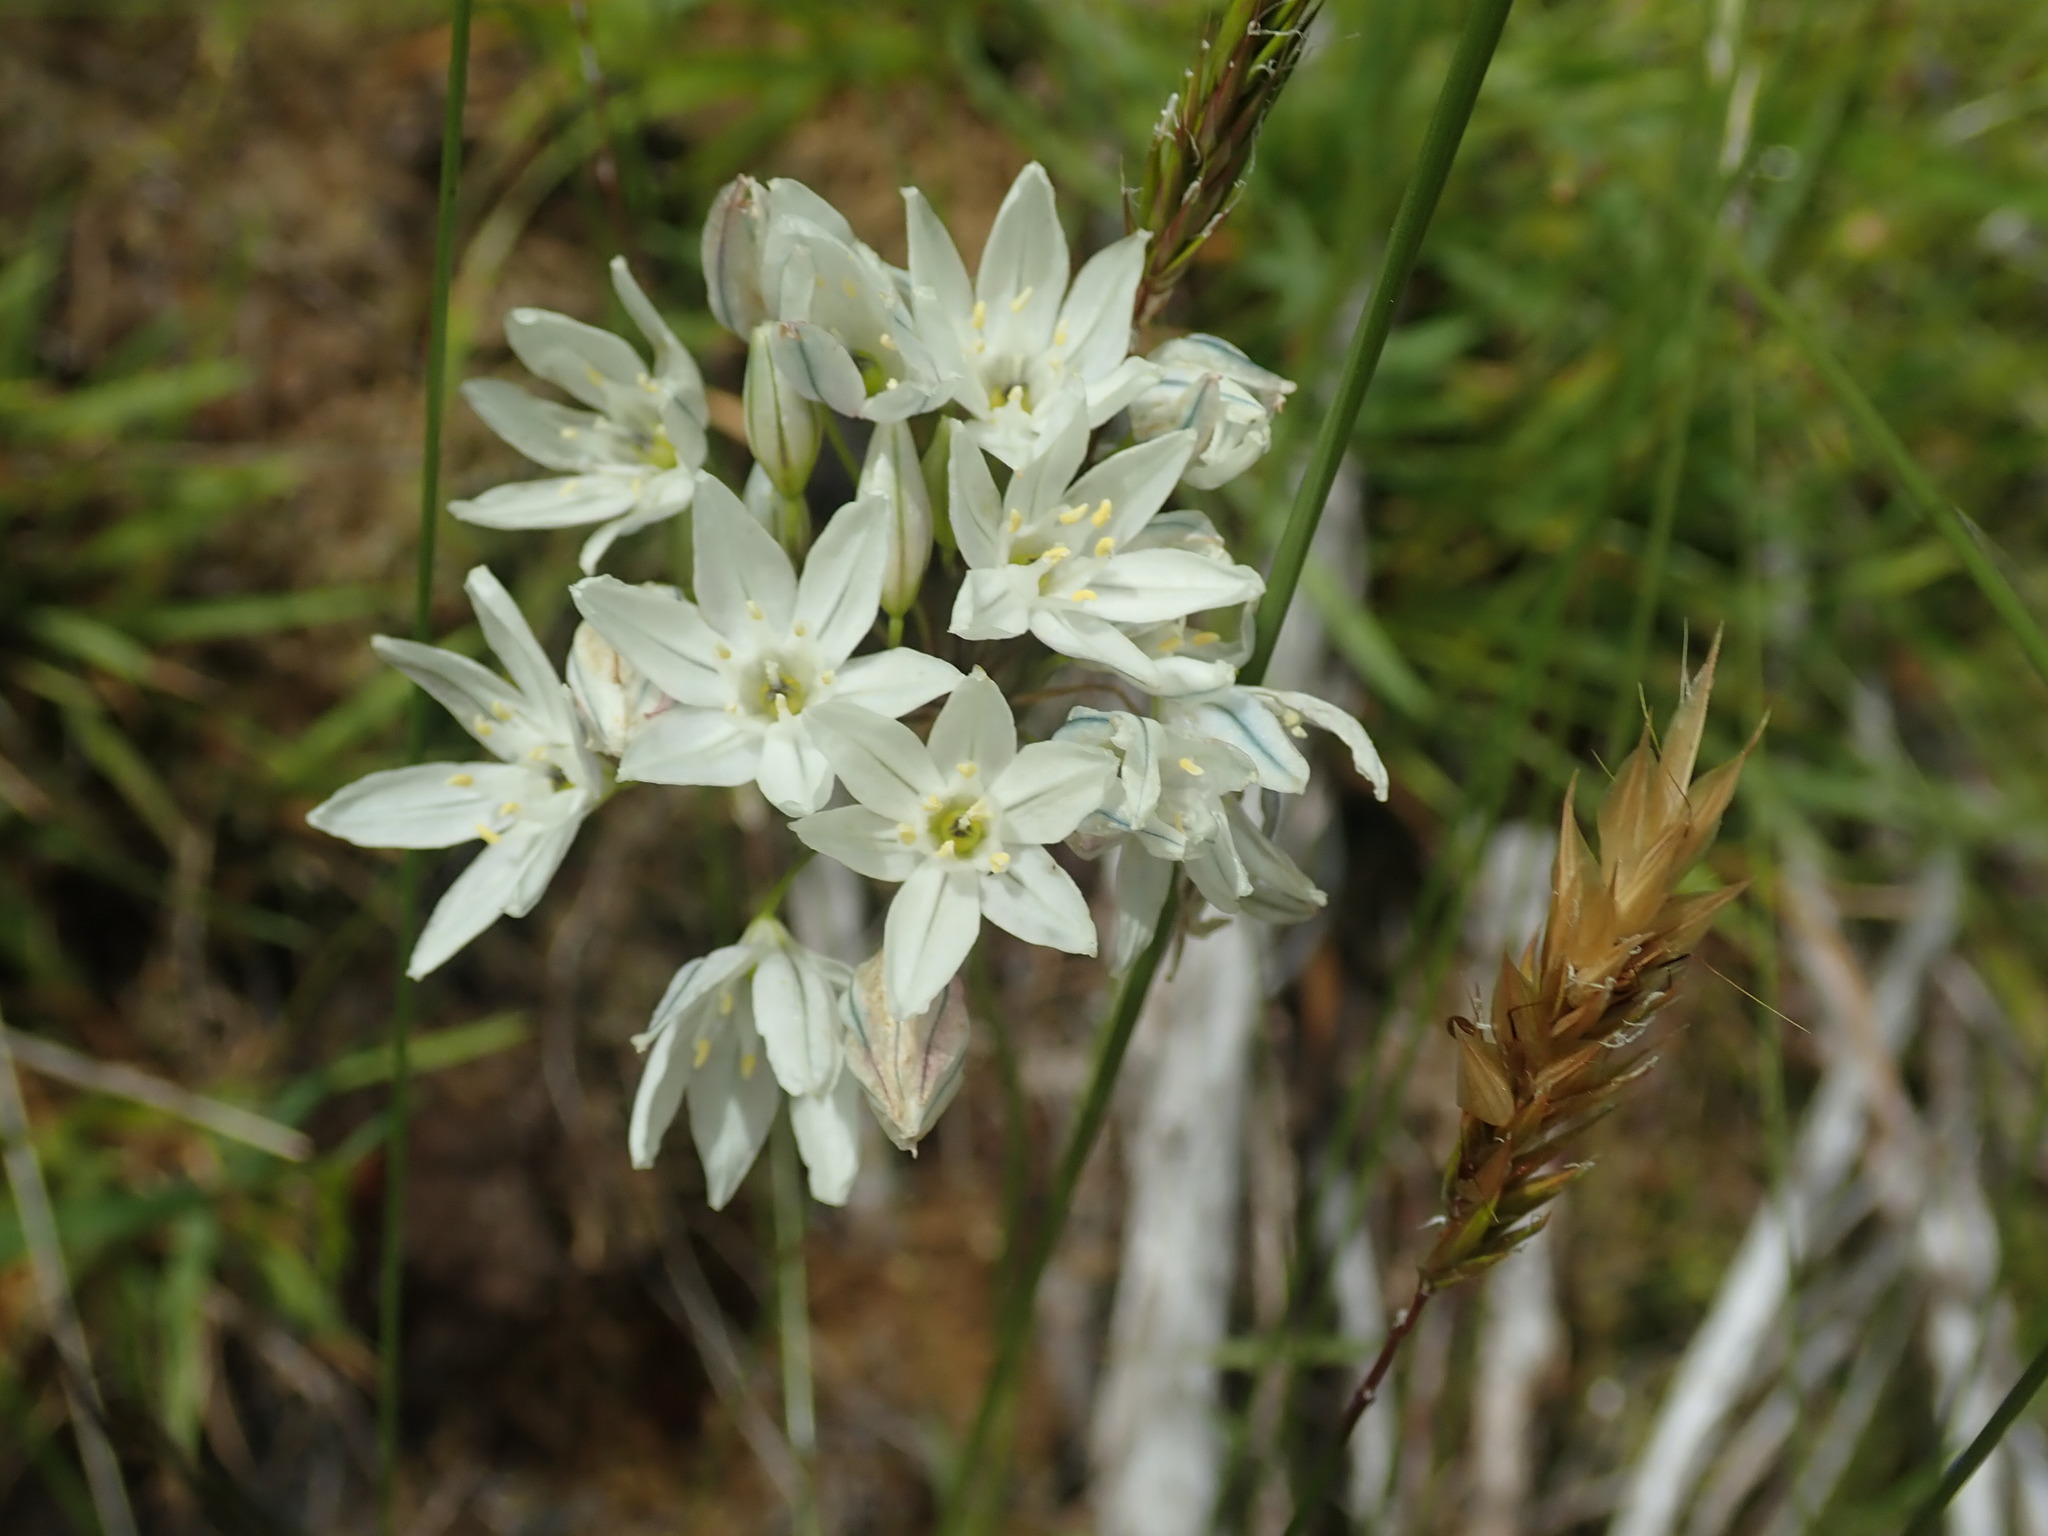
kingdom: Plantae
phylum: Tracheophyta
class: Liliopsida
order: Asparagales
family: Asparagaceae
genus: Triteleia
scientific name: Triteleia hyacinthina
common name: White brodiaea
